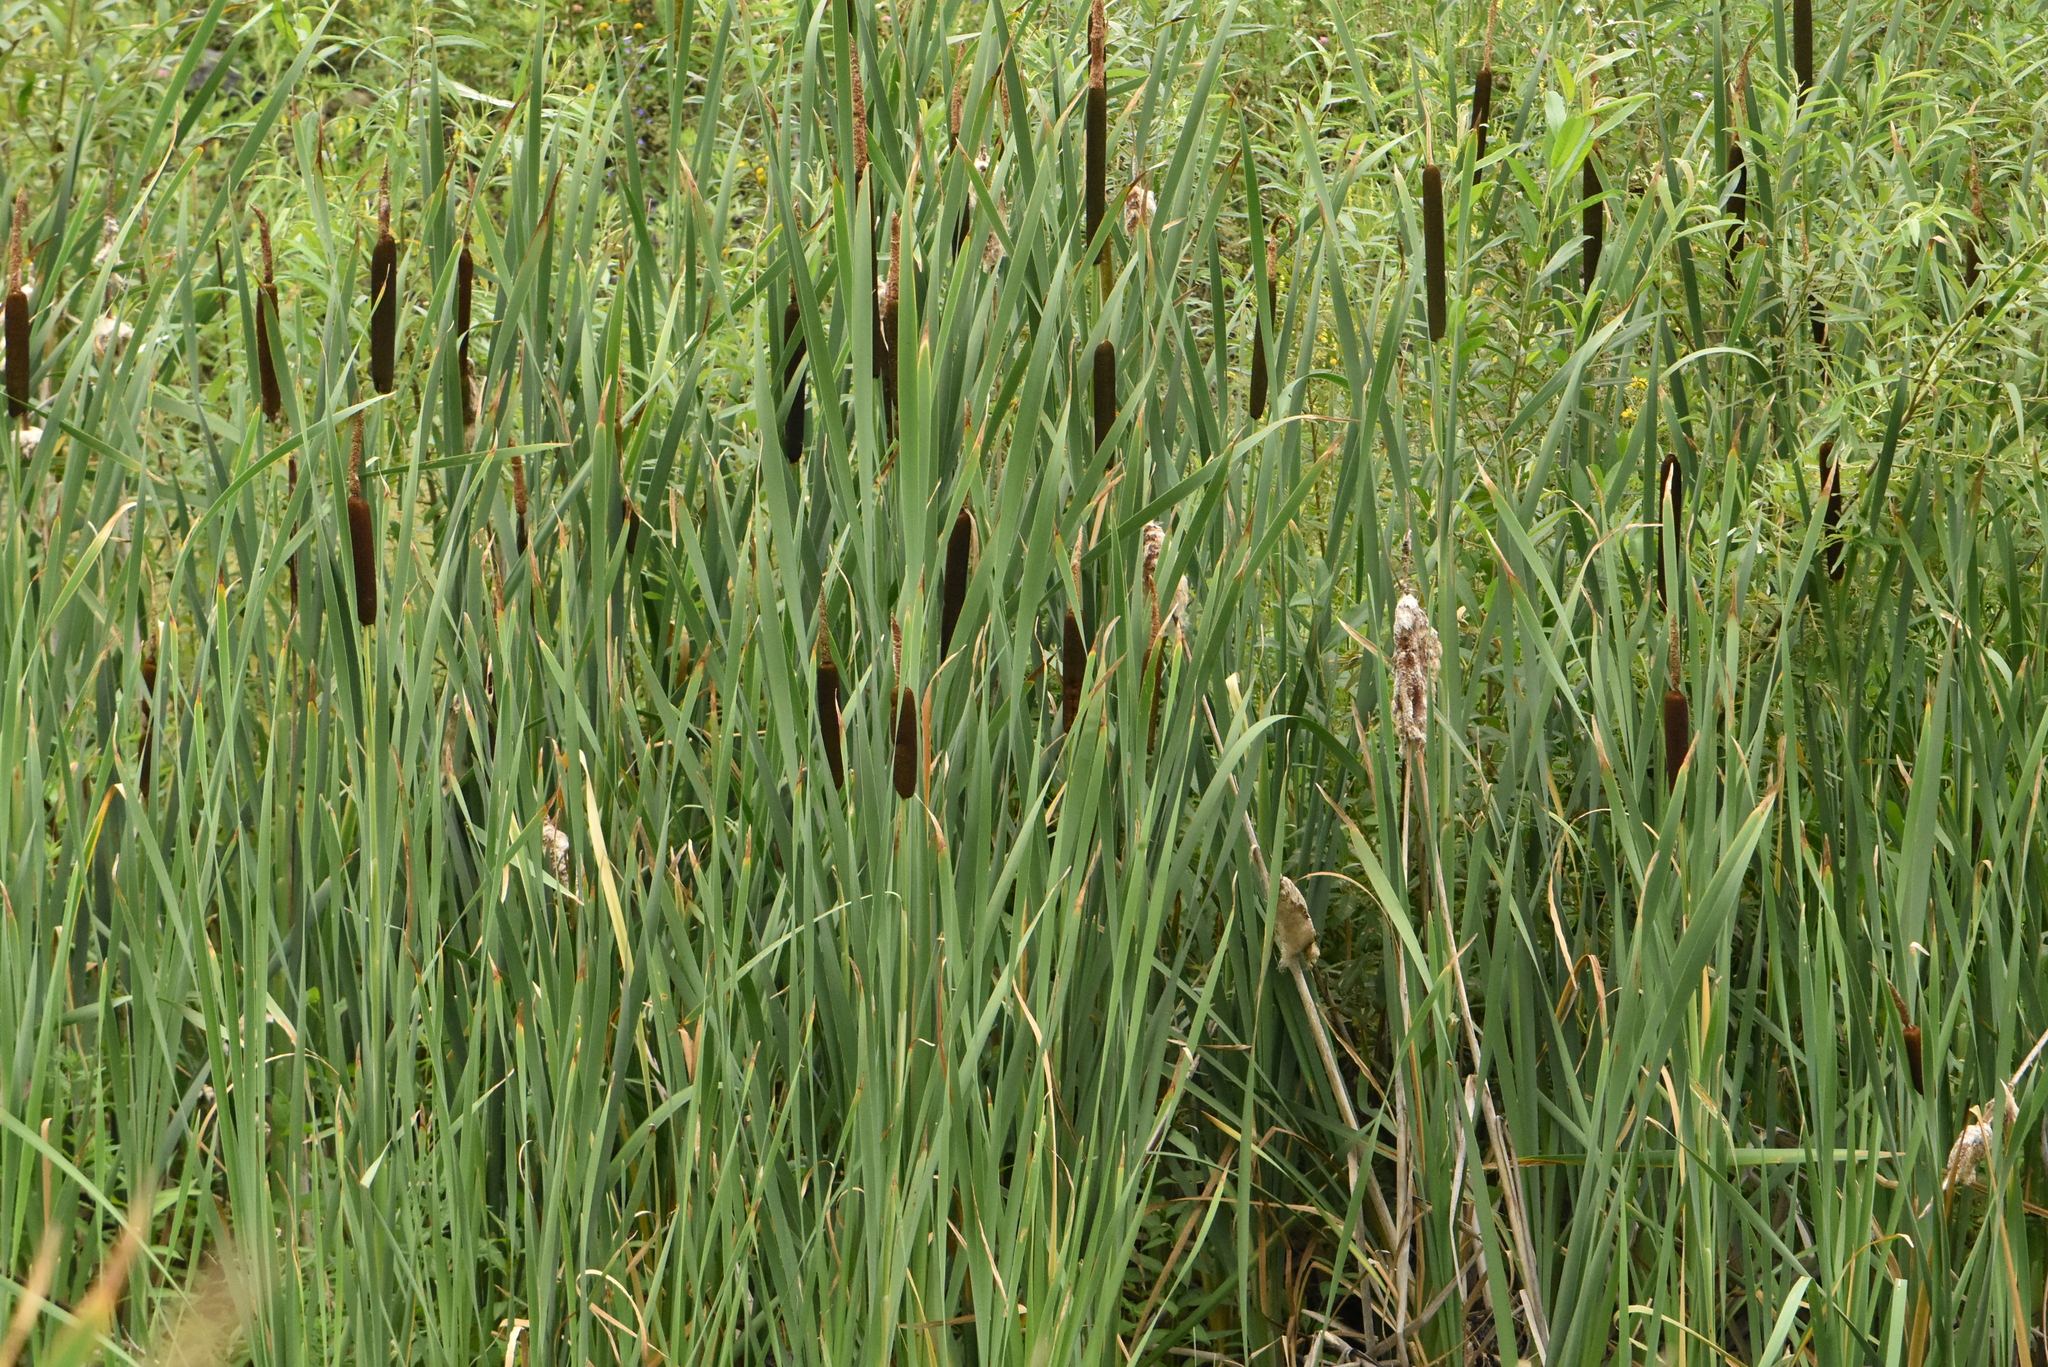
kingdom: Plantae
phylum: Tracheophyta
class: Liliopsida
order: Poales
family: Typhaceae
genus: Typha
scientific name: Typha latifolia
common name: Broadleaf cattail
